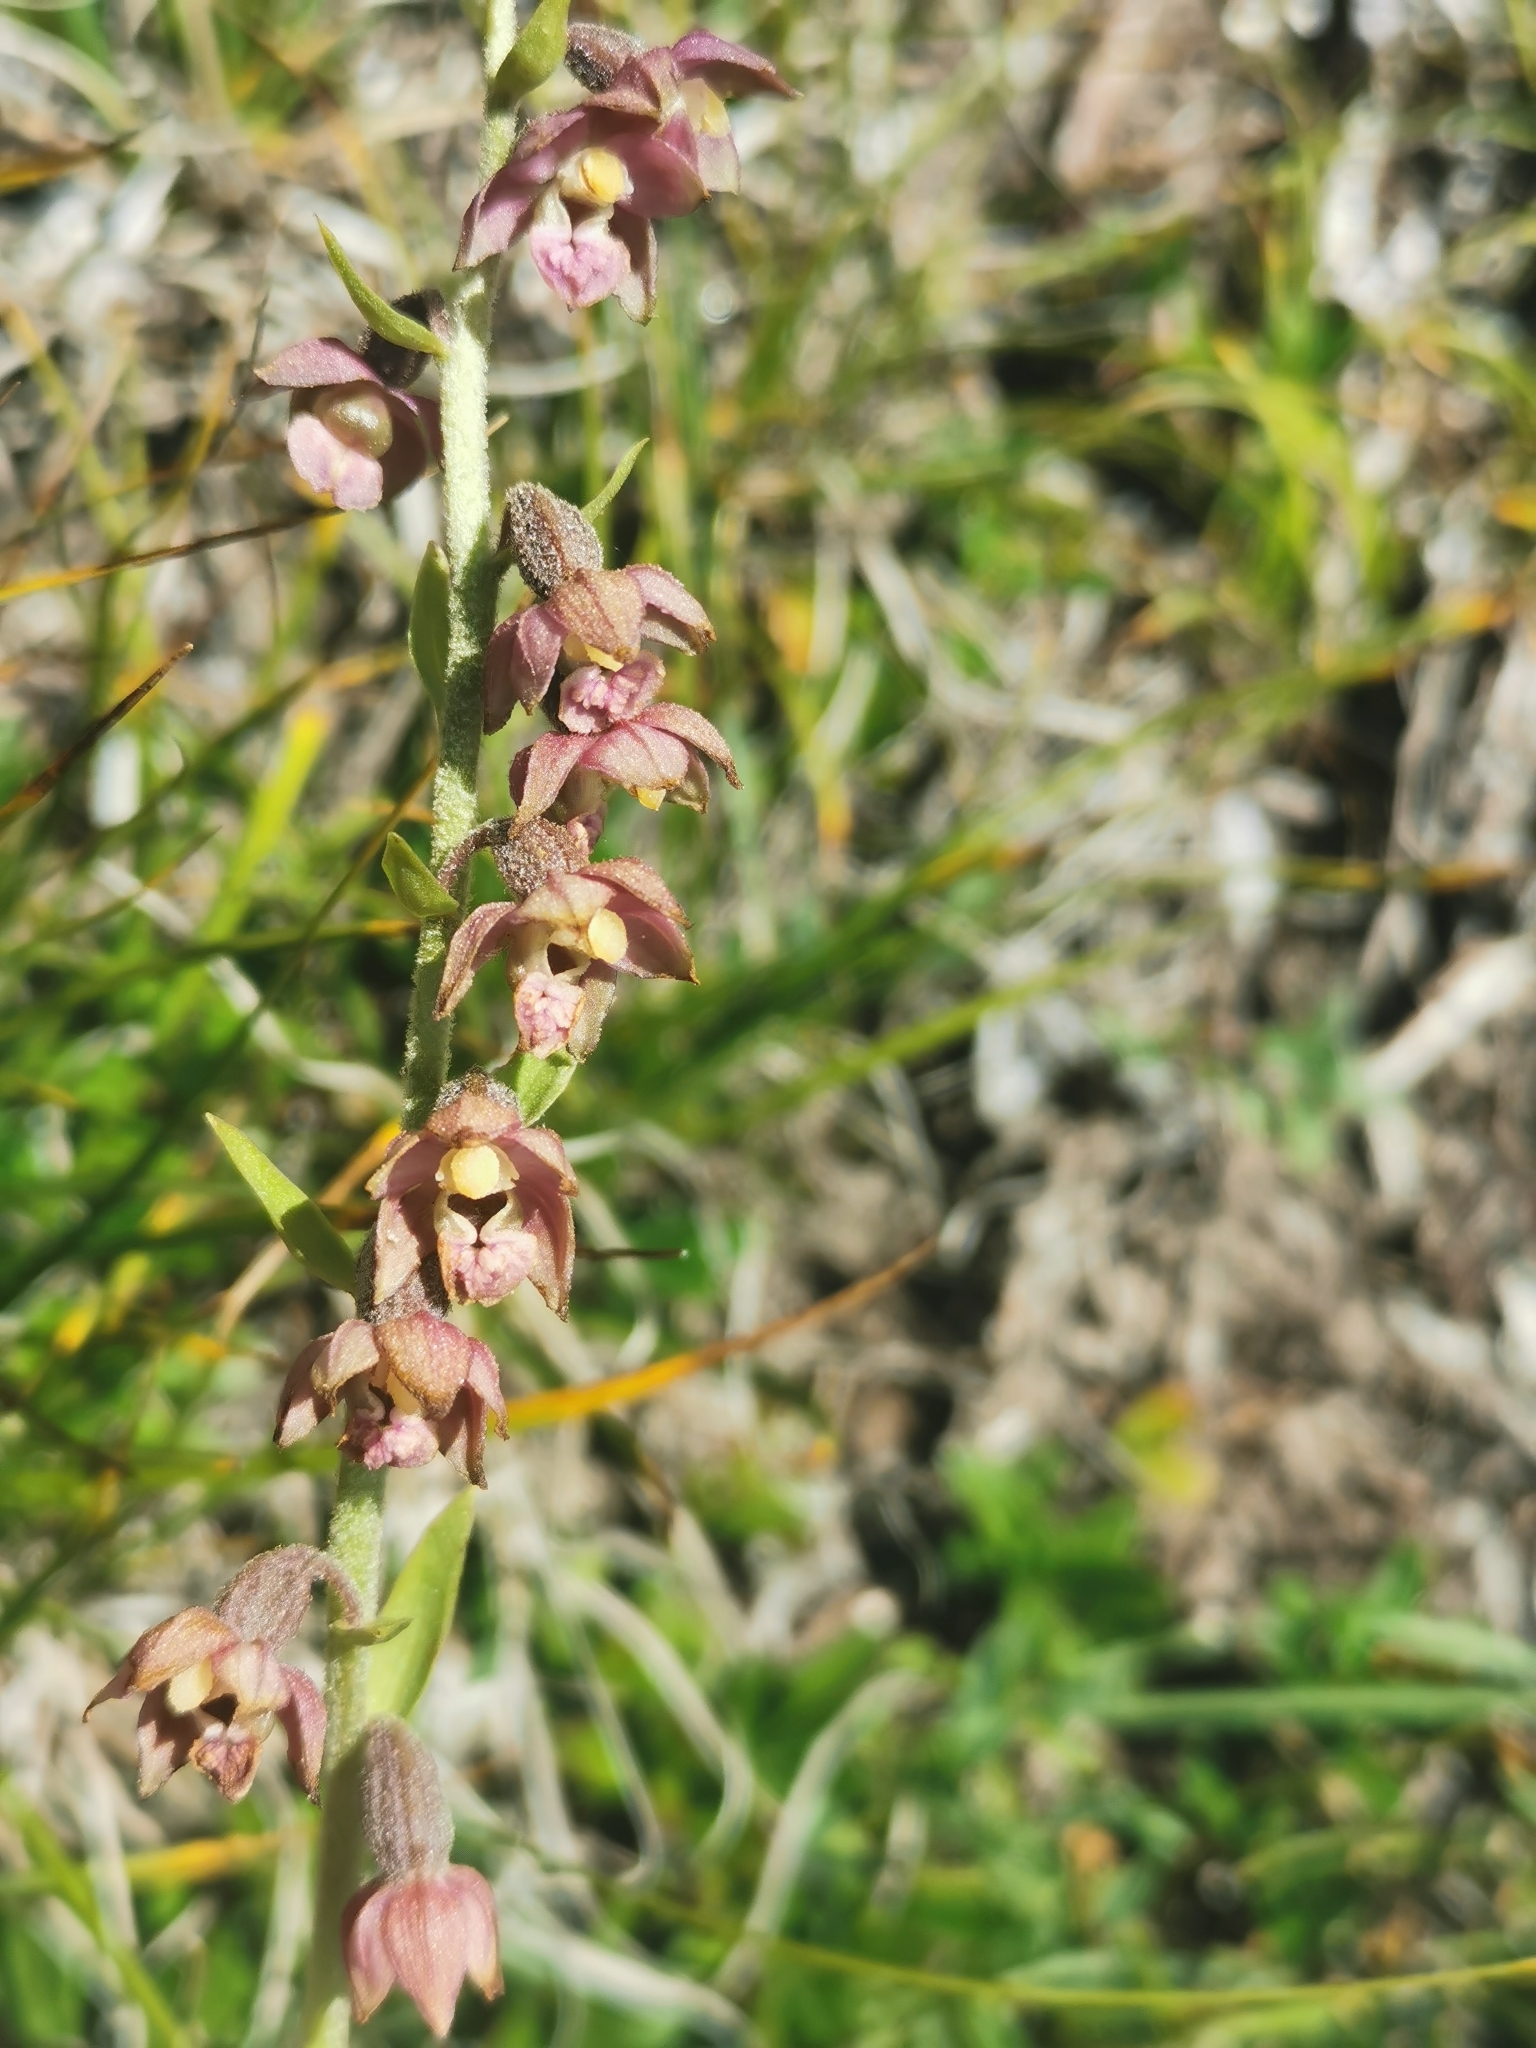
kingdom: Plantae
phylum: Tracheophyta
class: Liliopsida
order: Asparagales
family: Orchidaceae
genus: Epipactis
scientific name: Epipactis atrorubens
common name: Dark-red helleborine
